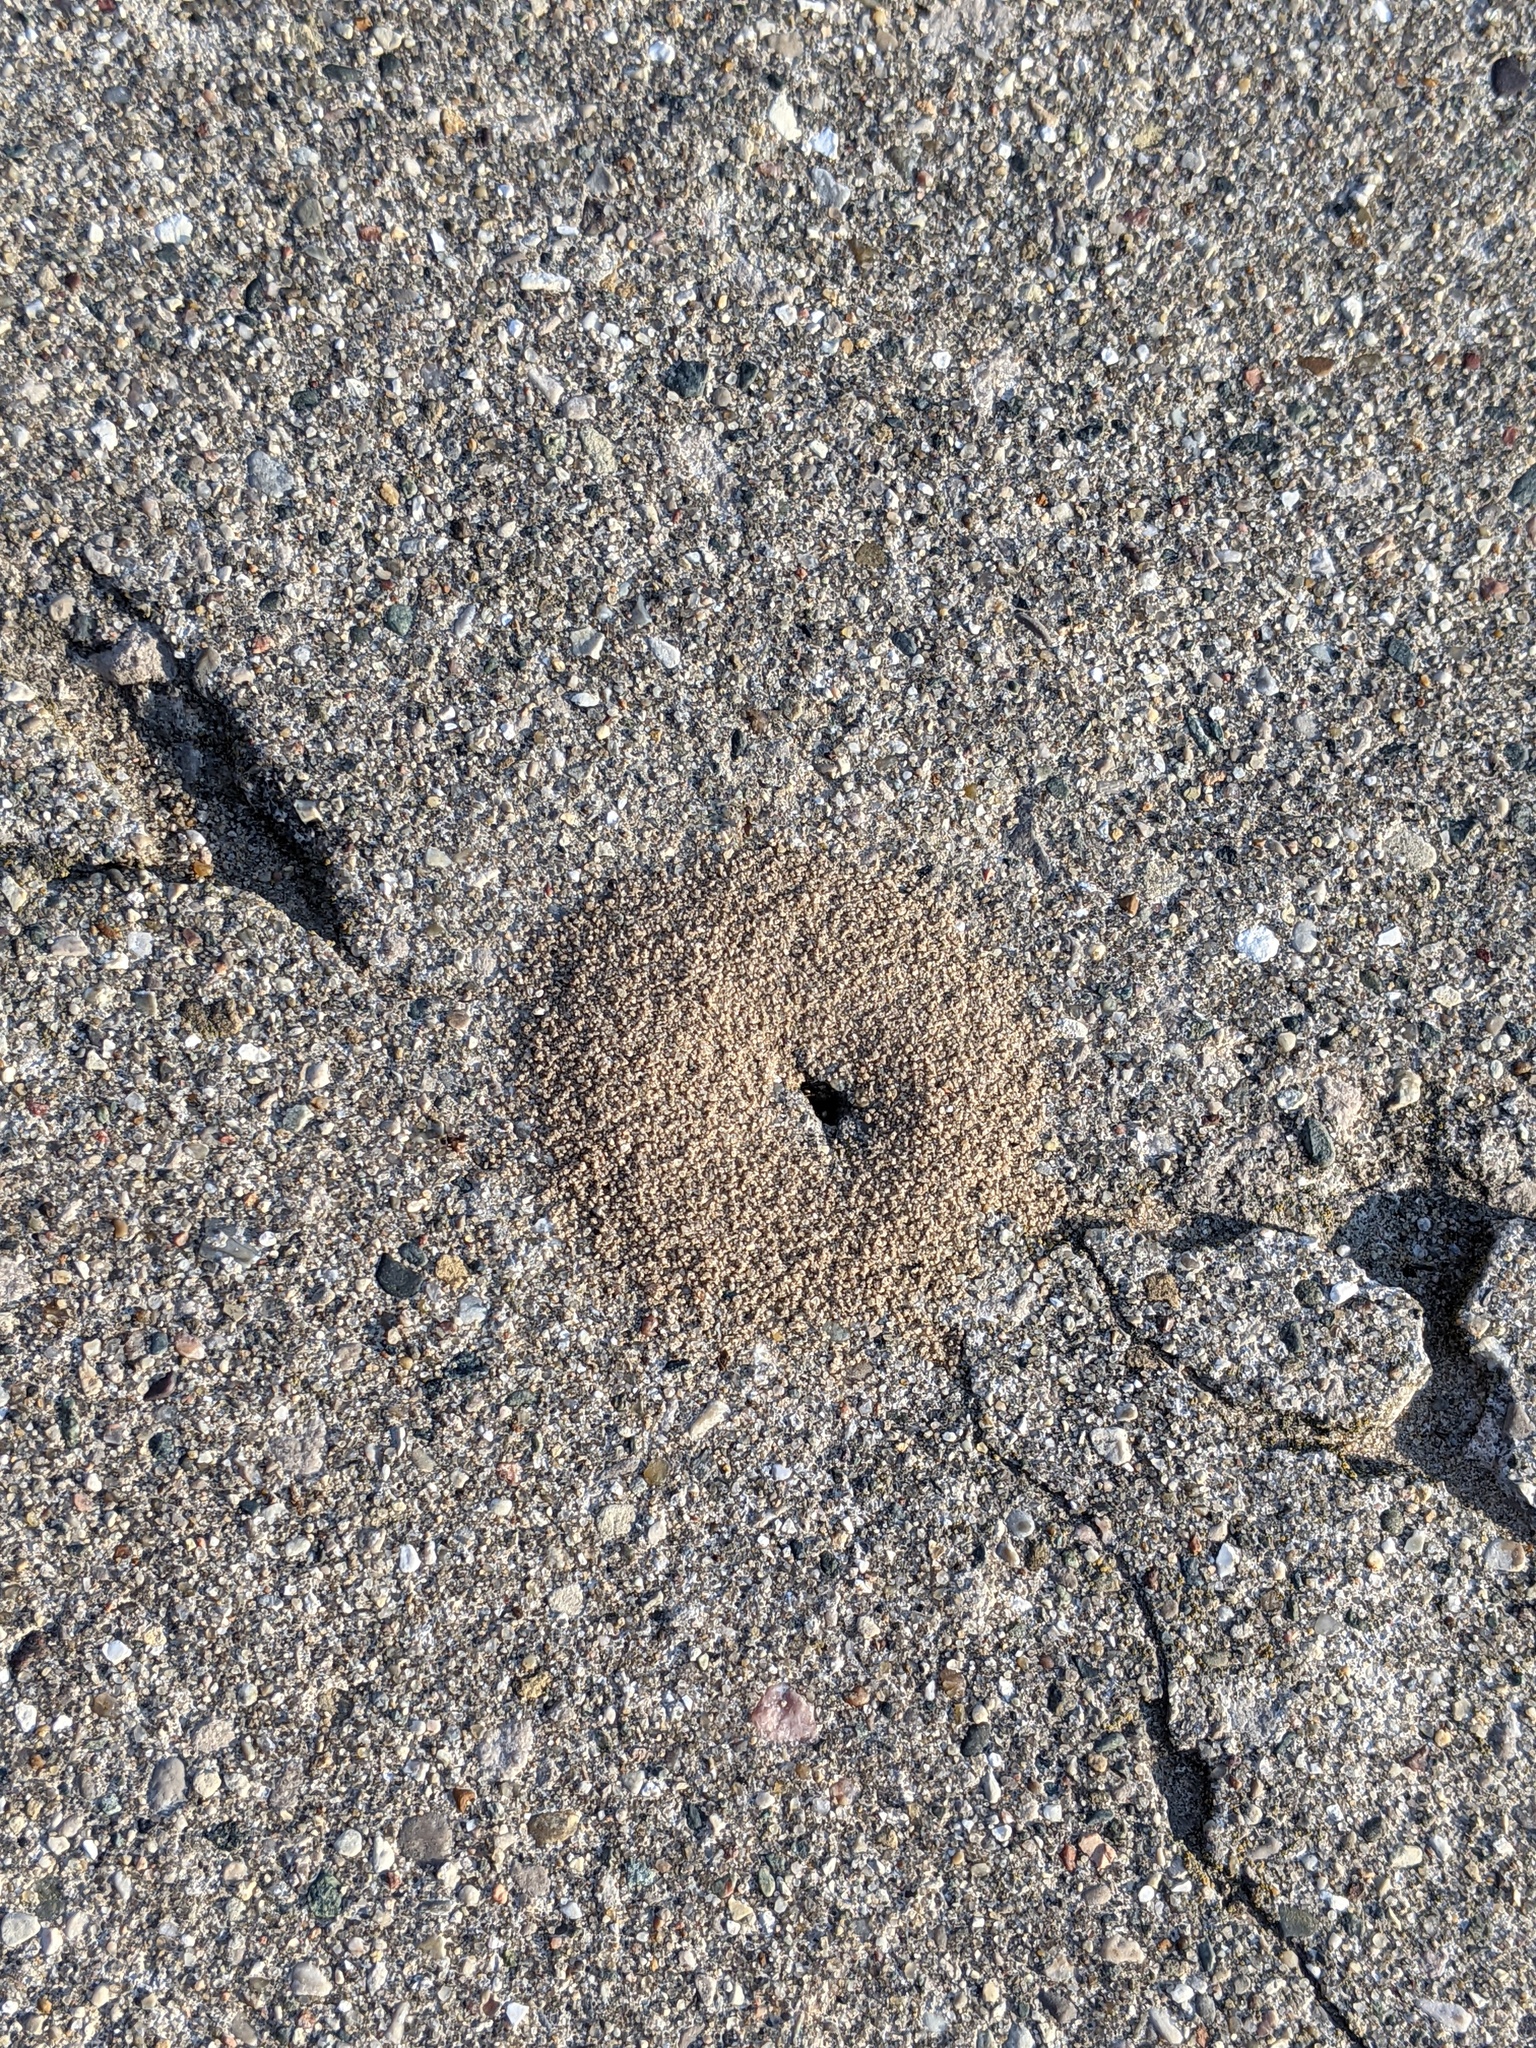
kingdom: Animalia
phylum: Arthropoda
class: Insecta
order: Hymenoptera
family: Formicidae
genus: Lasius
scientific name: Lasius americanus
